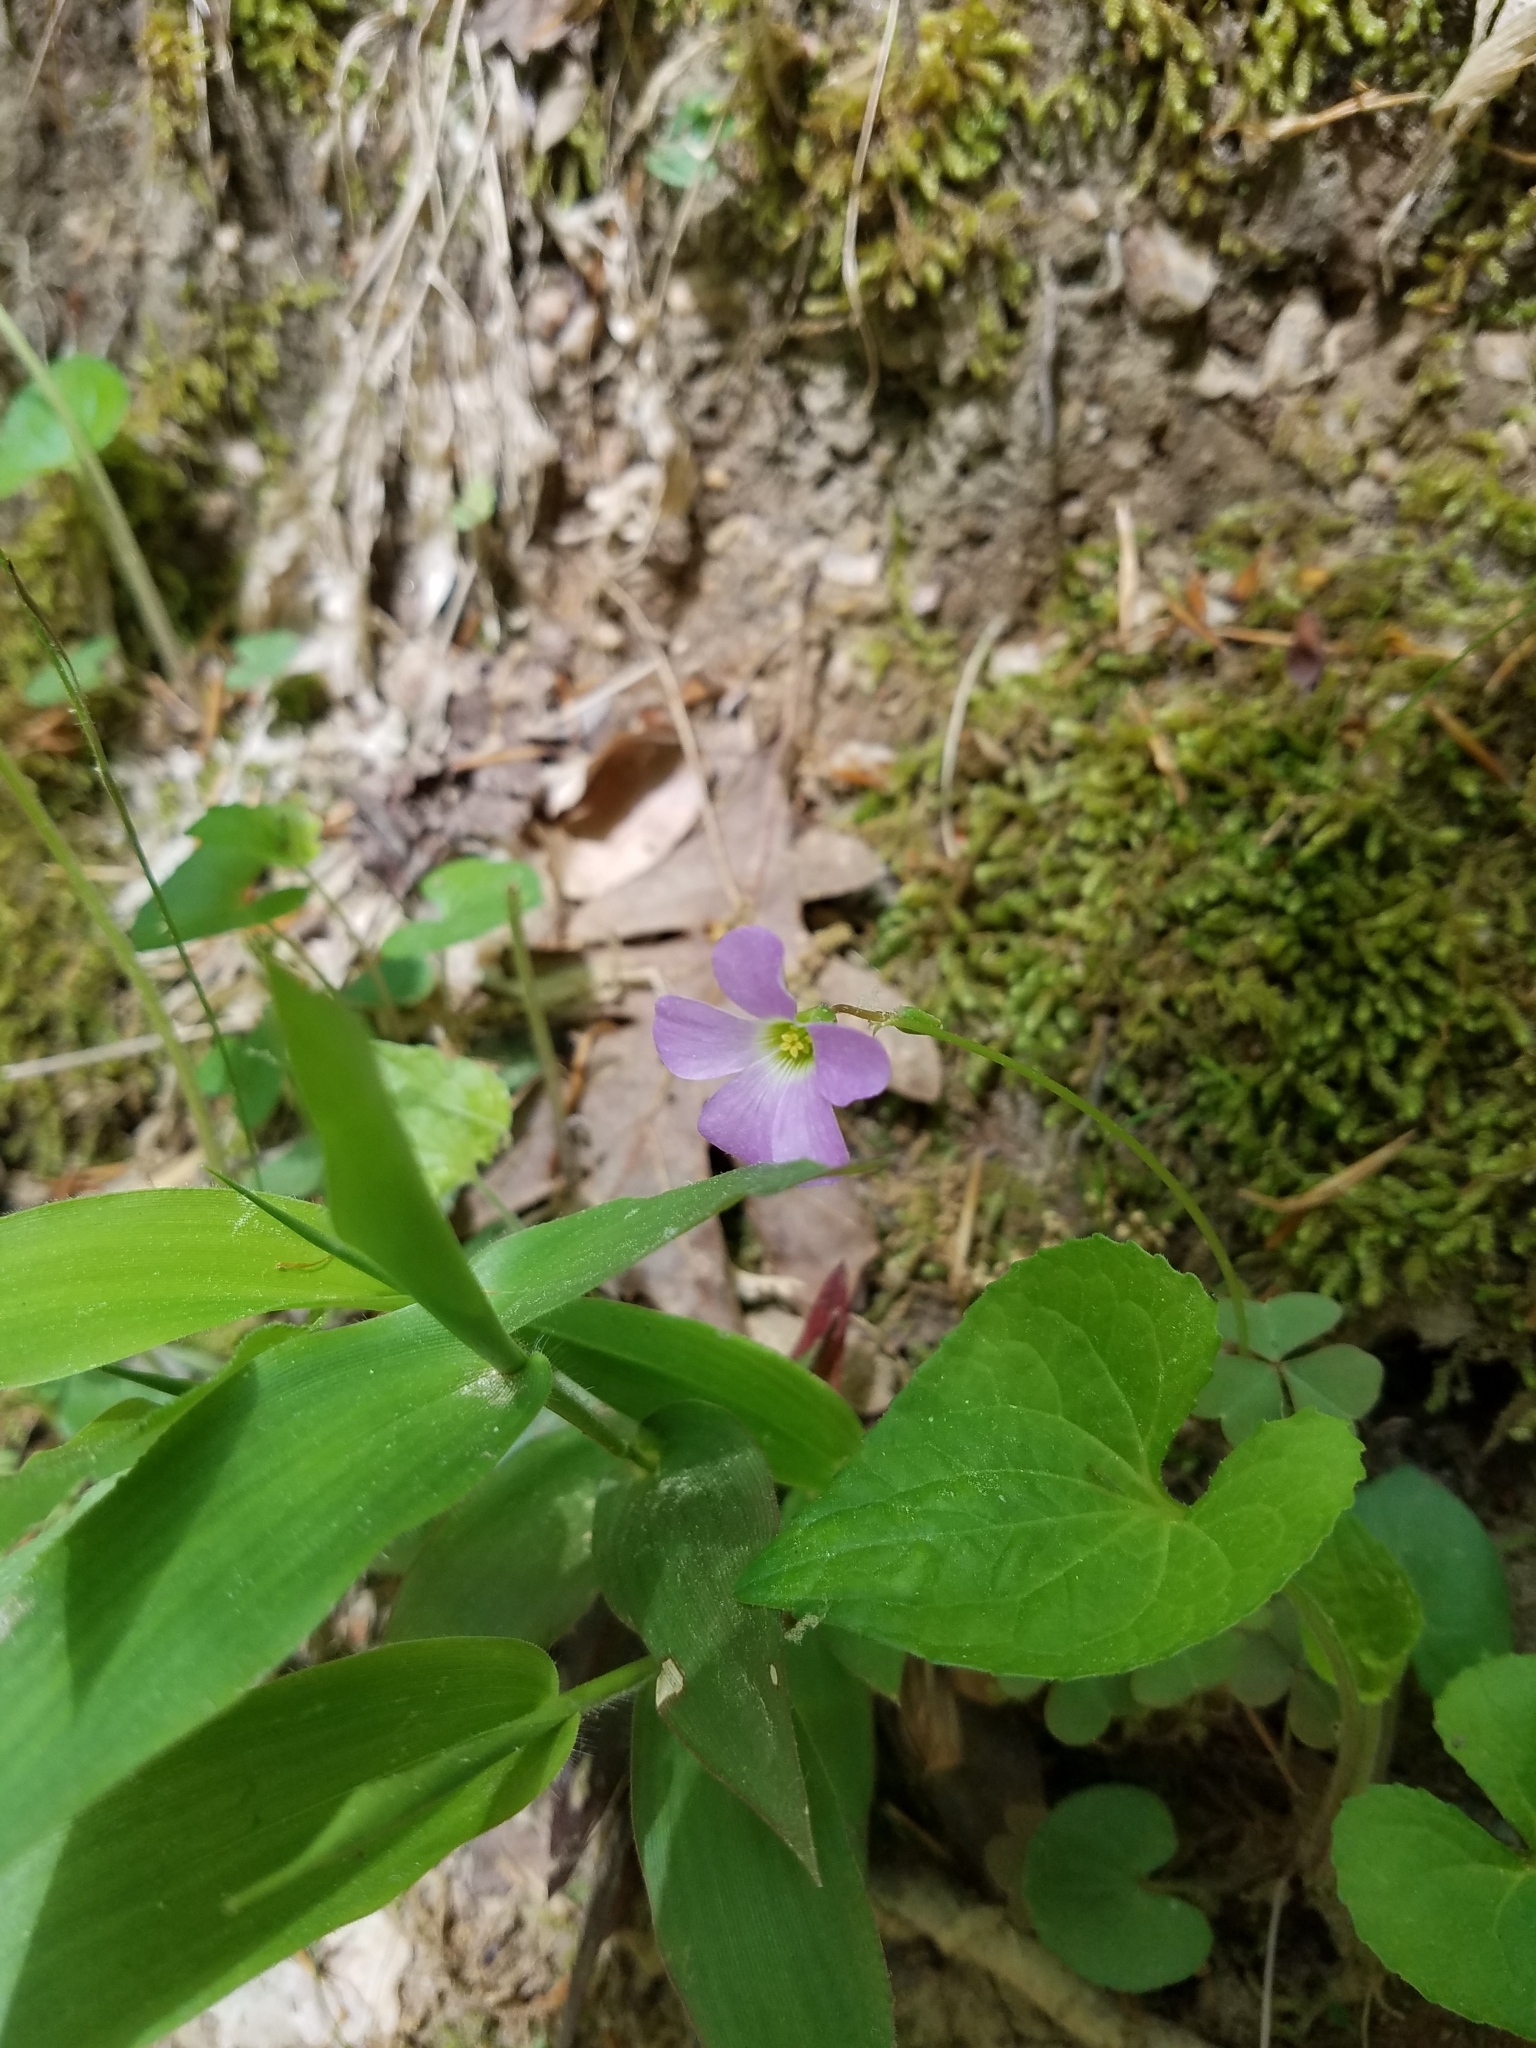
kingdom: Plantae
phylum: Tracheophyta
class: Magnoliopsida
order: Oxalidales
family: Oxalidaceae
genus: Oxalis
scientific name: Oxalis violacea
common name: Violet wood-sorrel
